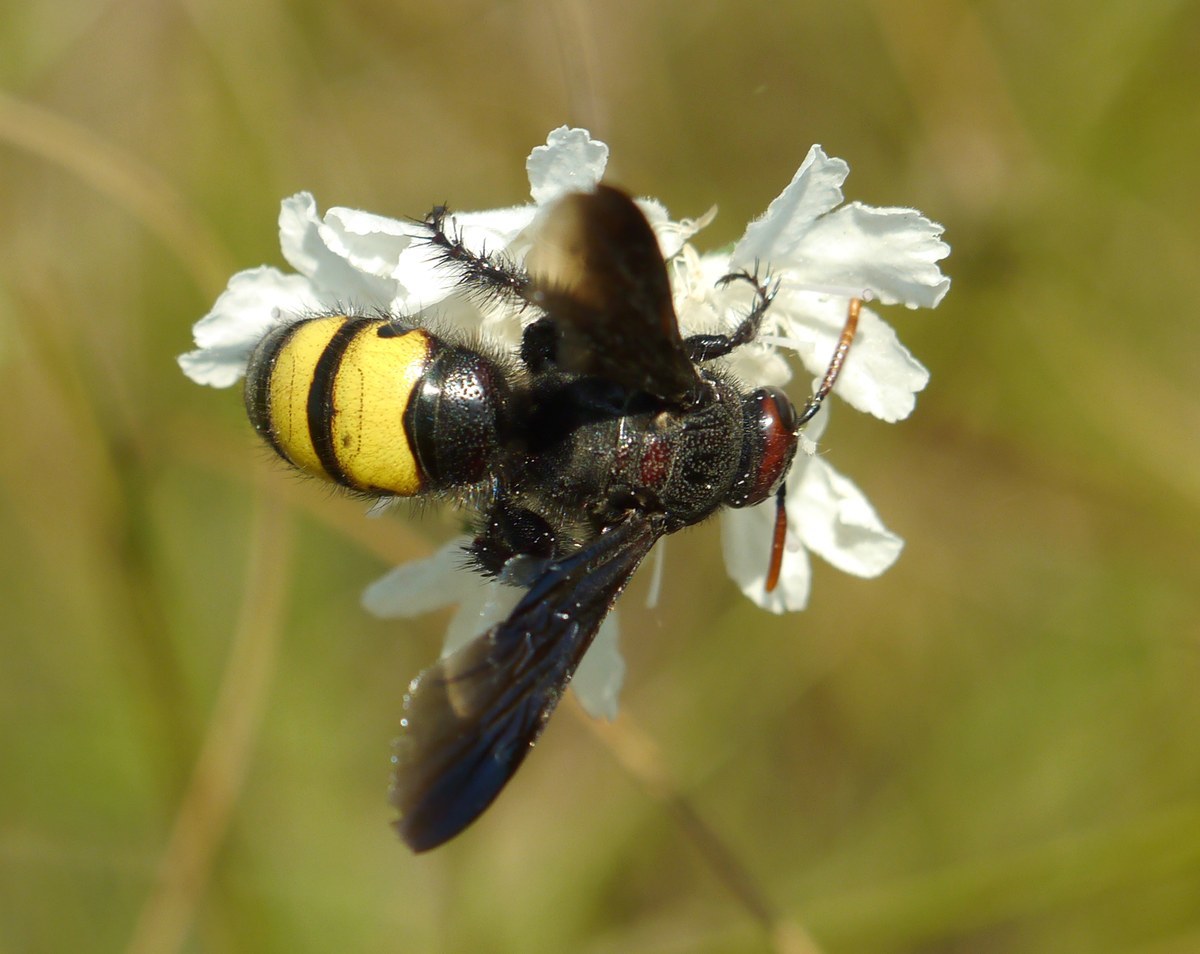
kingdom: Animalia
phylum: Arthropoda
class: Insecta
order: Hymenoptera
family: Vespidae
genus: Vespa
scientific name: Vespa galbula
